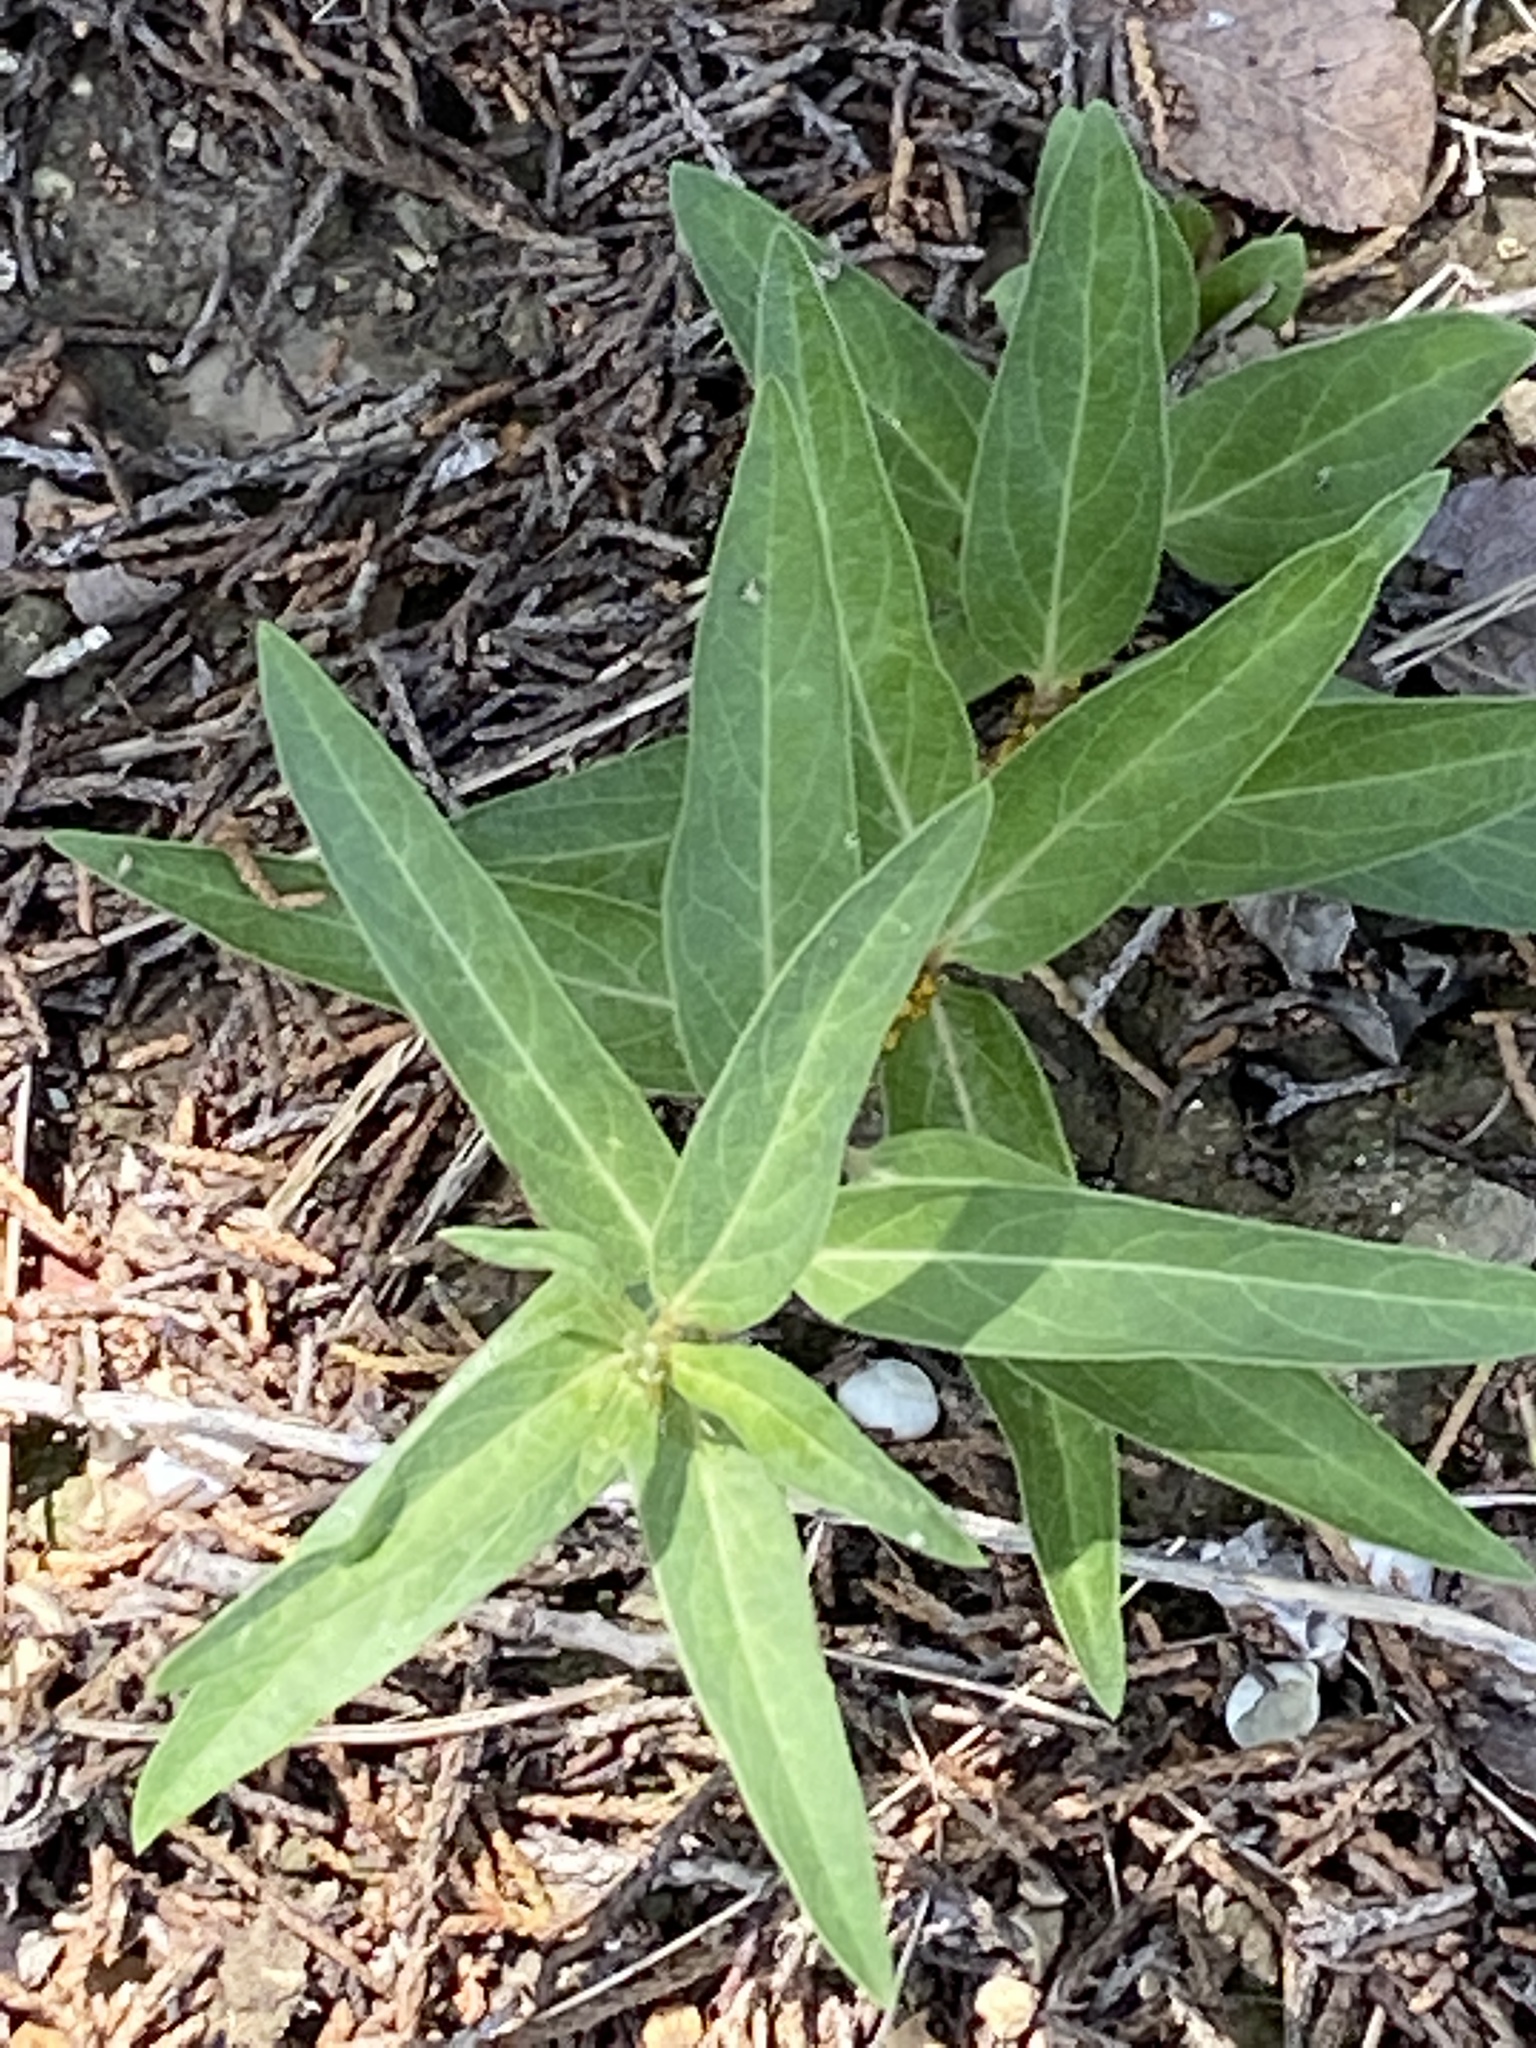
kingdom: Plantae
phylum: Tracheophyta
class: Magnoliopsida
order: Gentianales
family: Apocynaceae
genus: Asclepias
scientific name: Asclepias asperula
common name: Antelope horns
